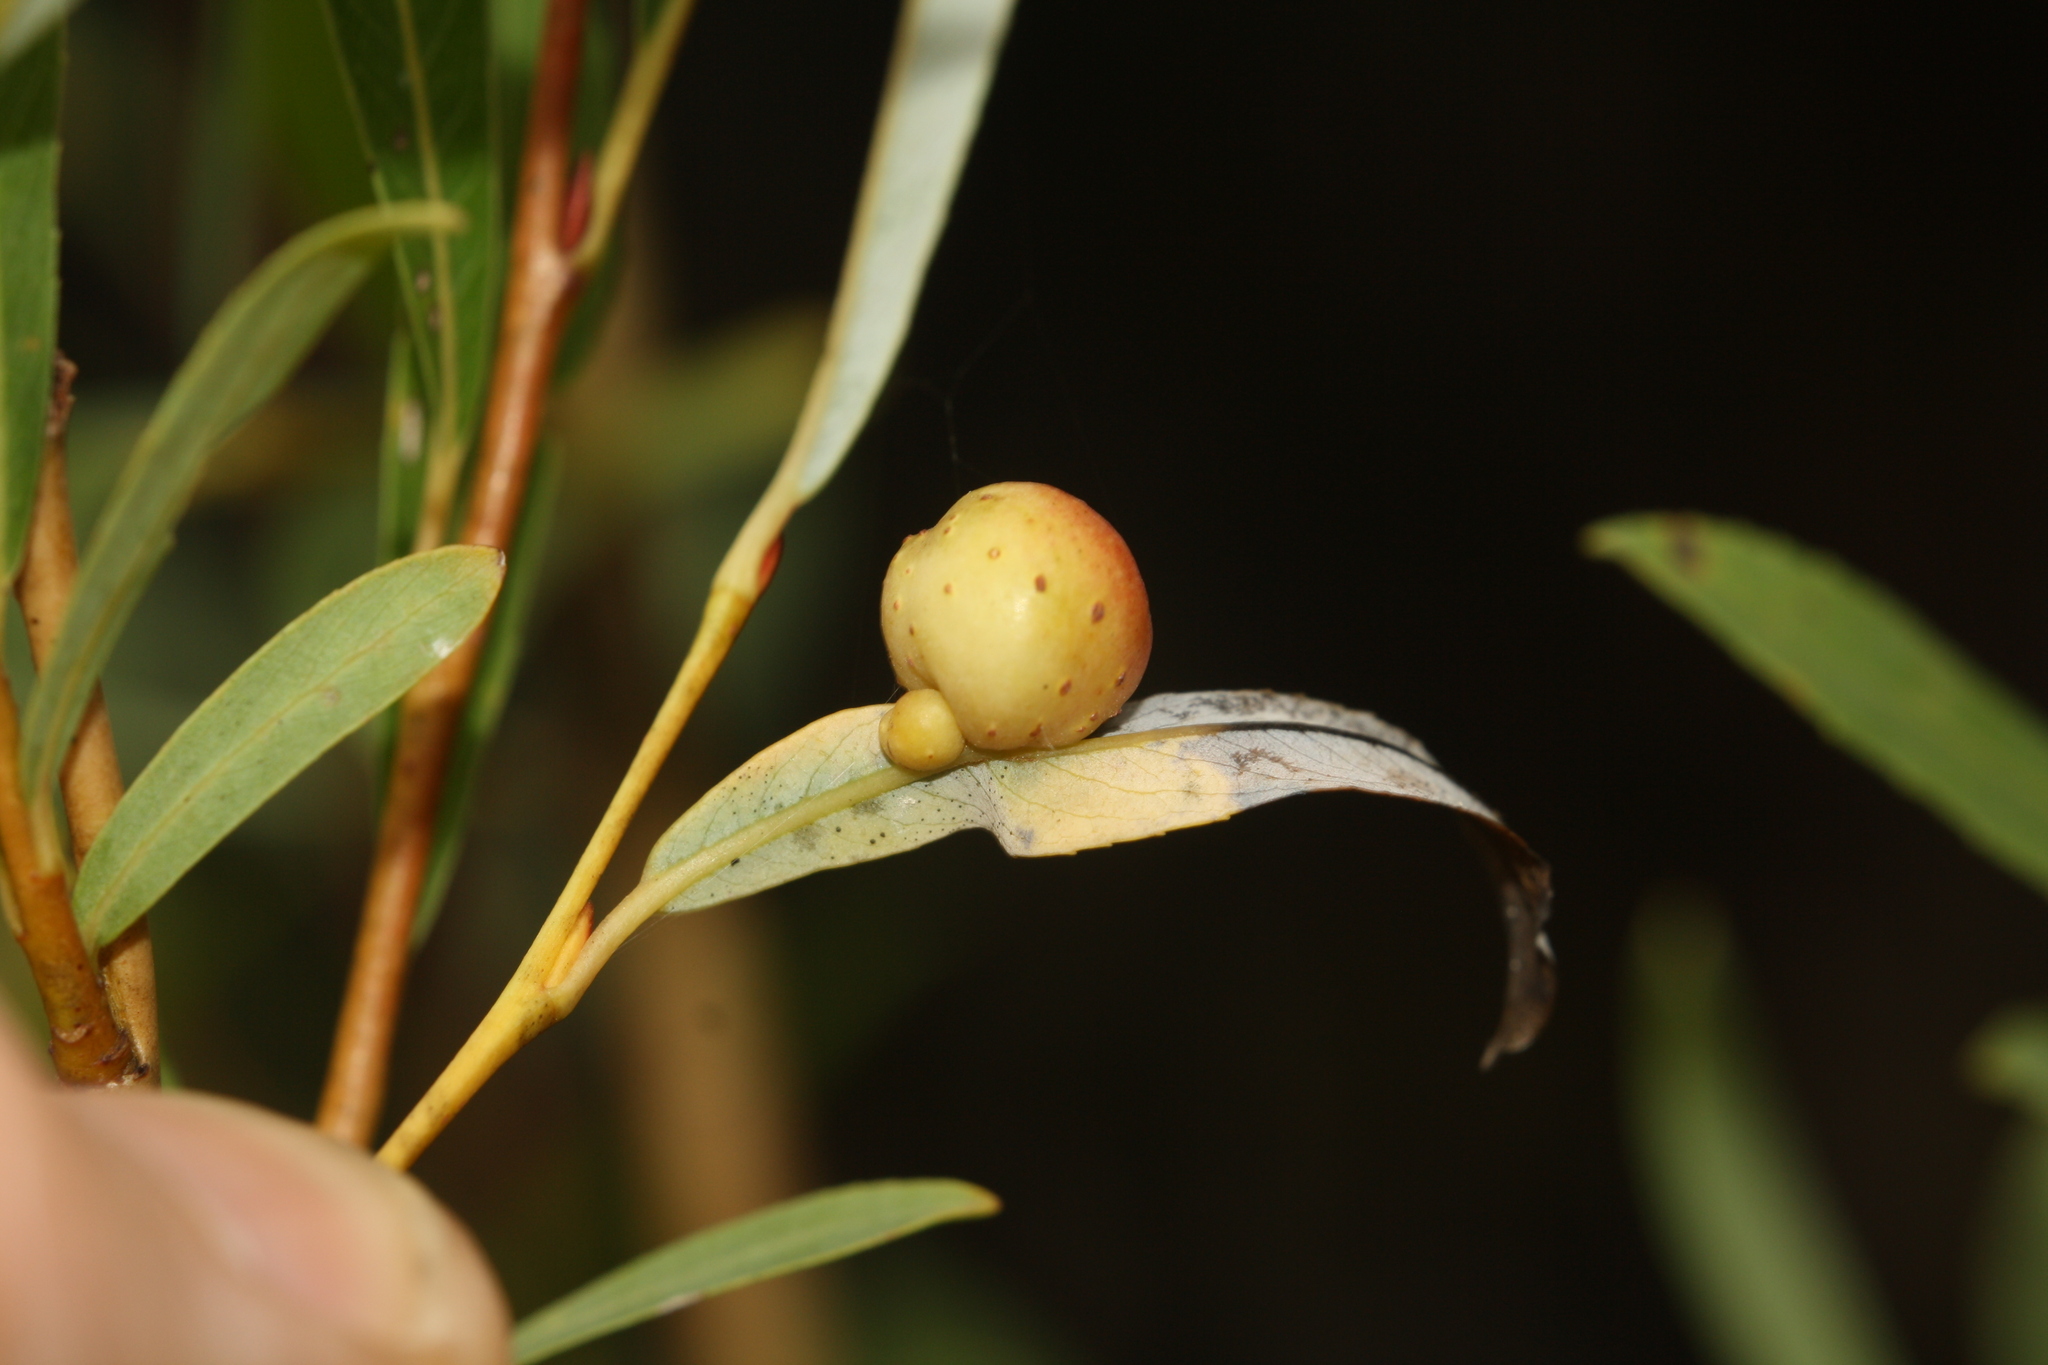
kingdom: Animalia
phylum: Arthropoda
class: Insecta
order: Hymenoptera
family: Tenthredinidae
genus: Euura
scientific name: Euura viminalis
